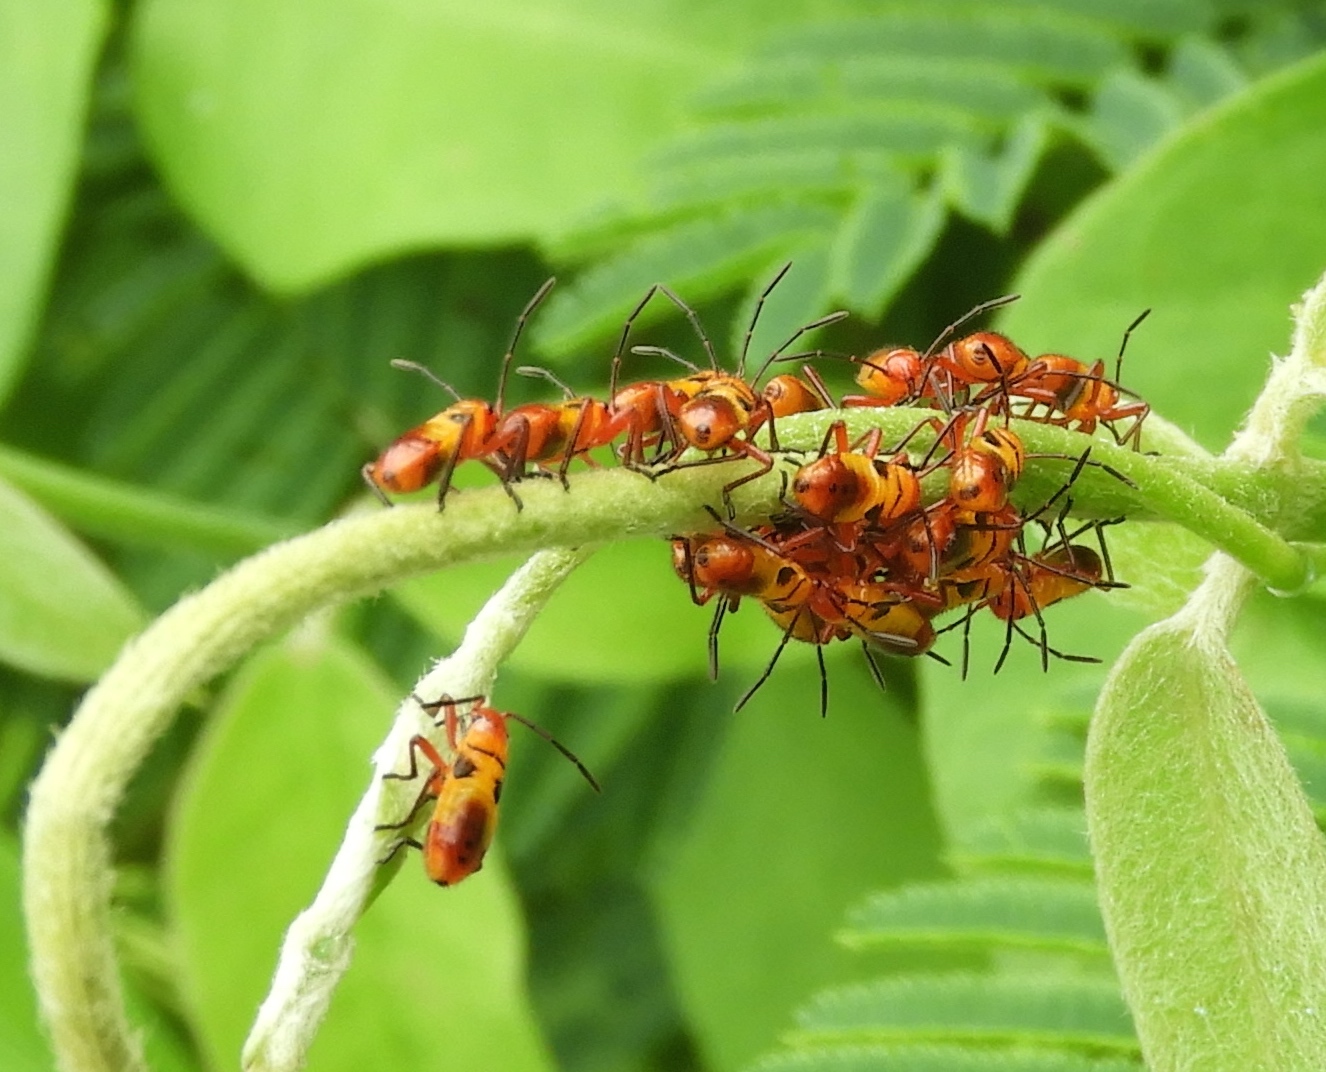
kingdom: Animalia
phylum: Arthropoda
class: Insecta
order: Hemiptera
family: Lygaeidae
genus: Oncopeltus
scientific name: Oncopeltus guttaloides
